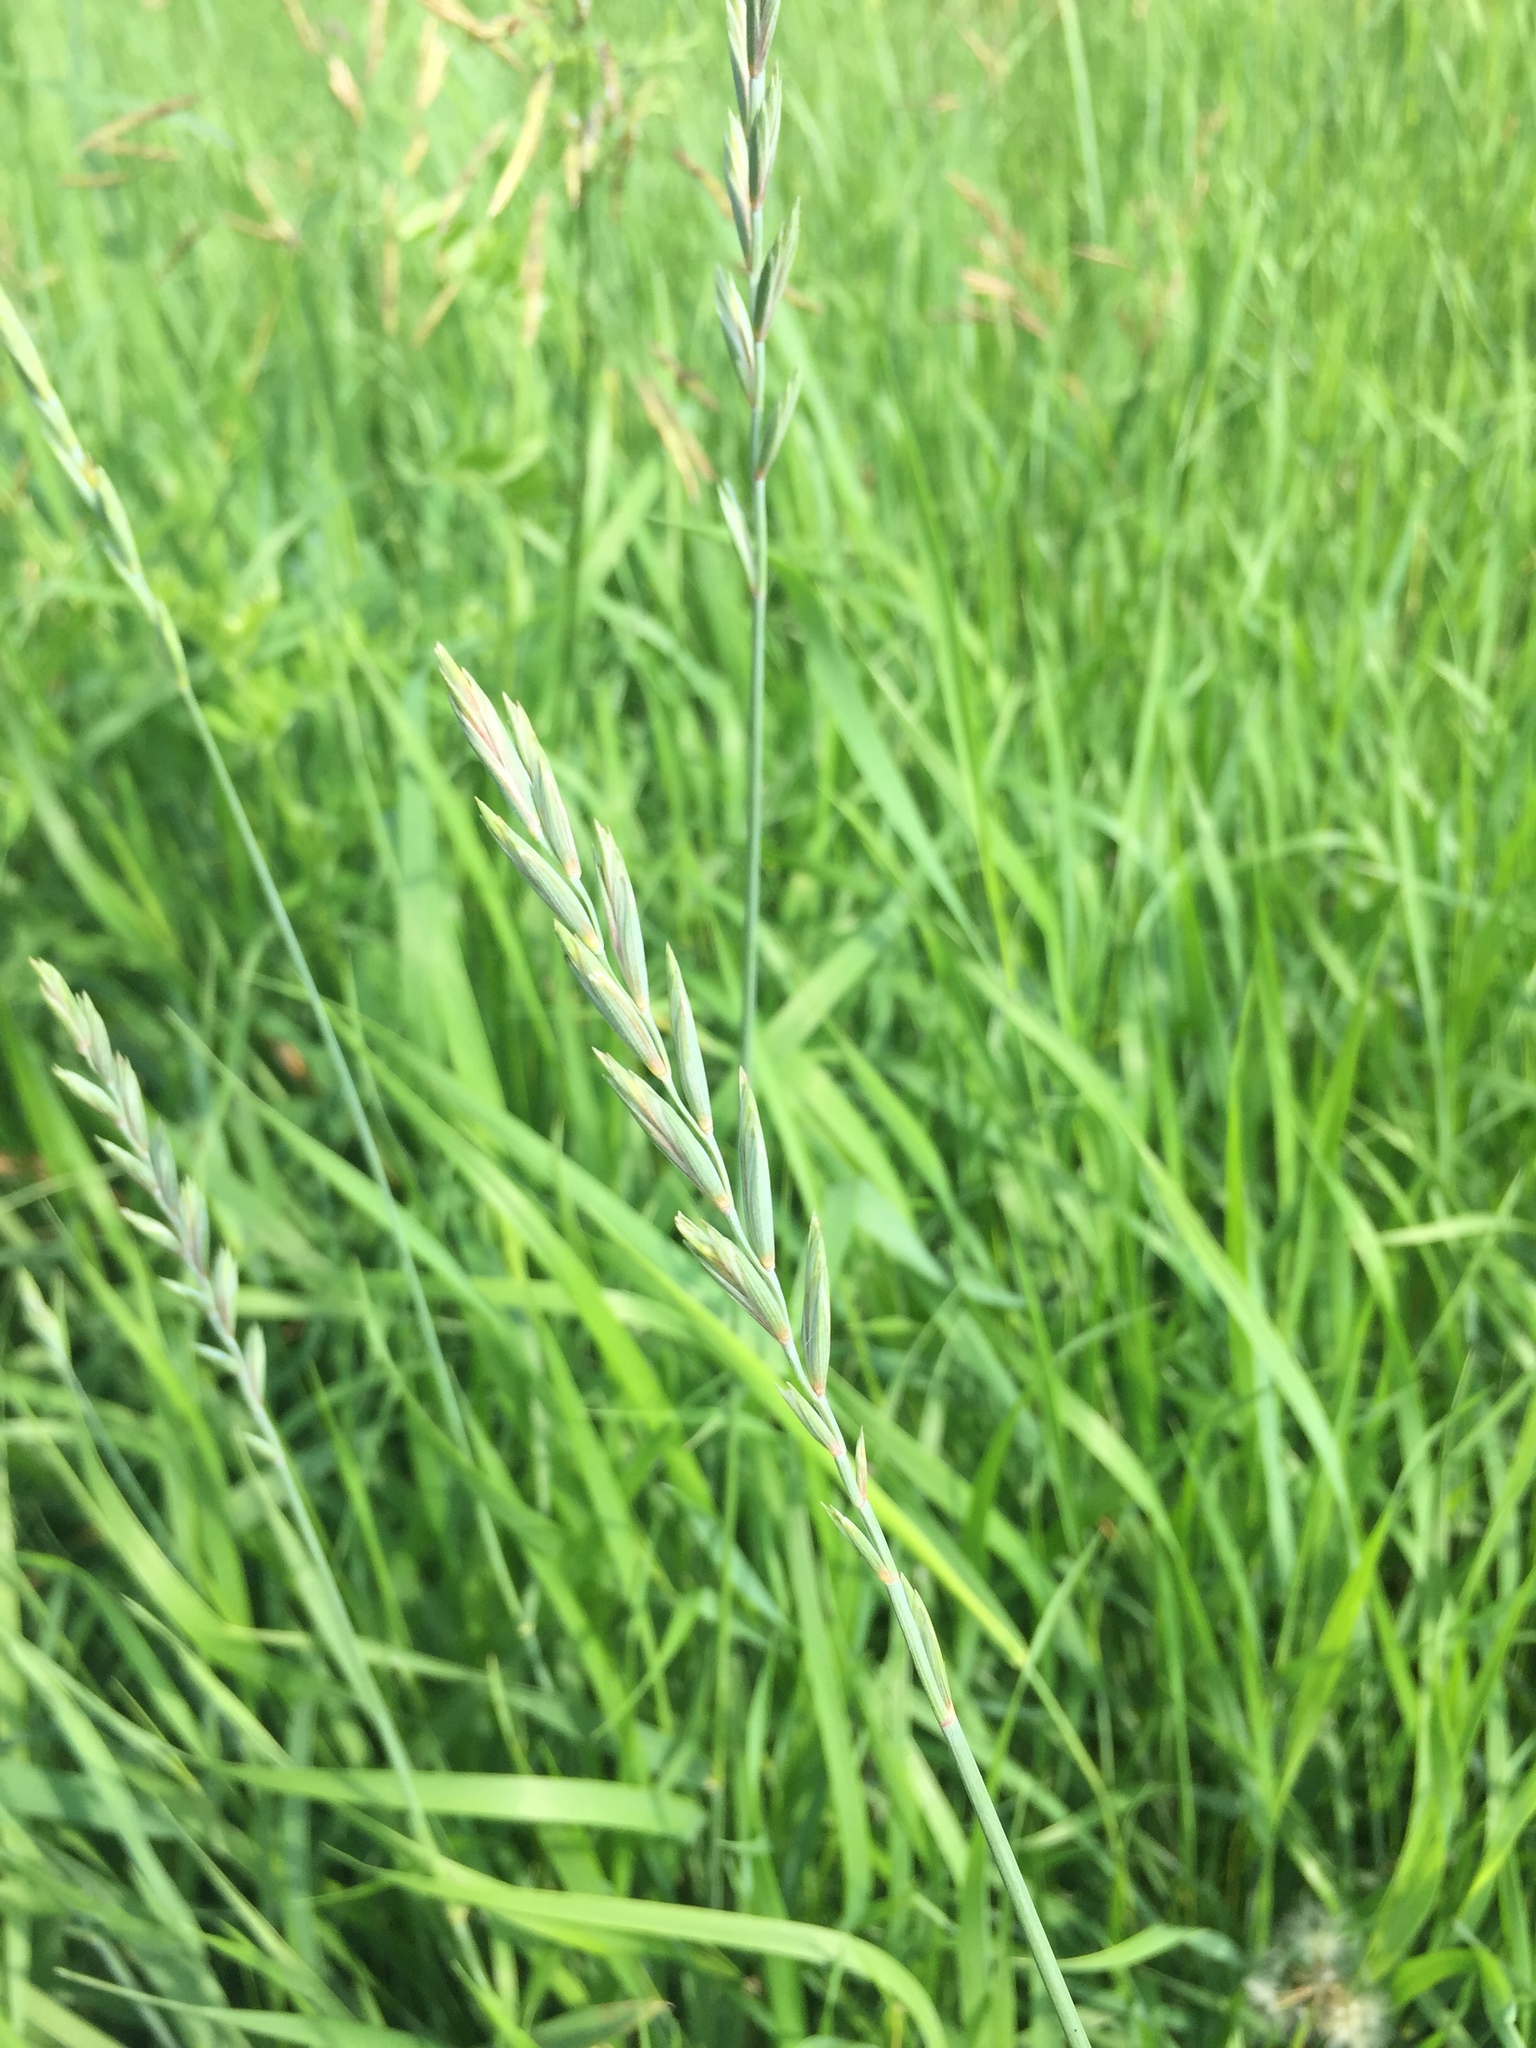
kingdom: Plantae
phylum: Tracheophyta
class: Liliopsida
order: Poales
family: Poaceae
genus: Elymus
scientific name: Elymus repens
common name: Quackgrass
